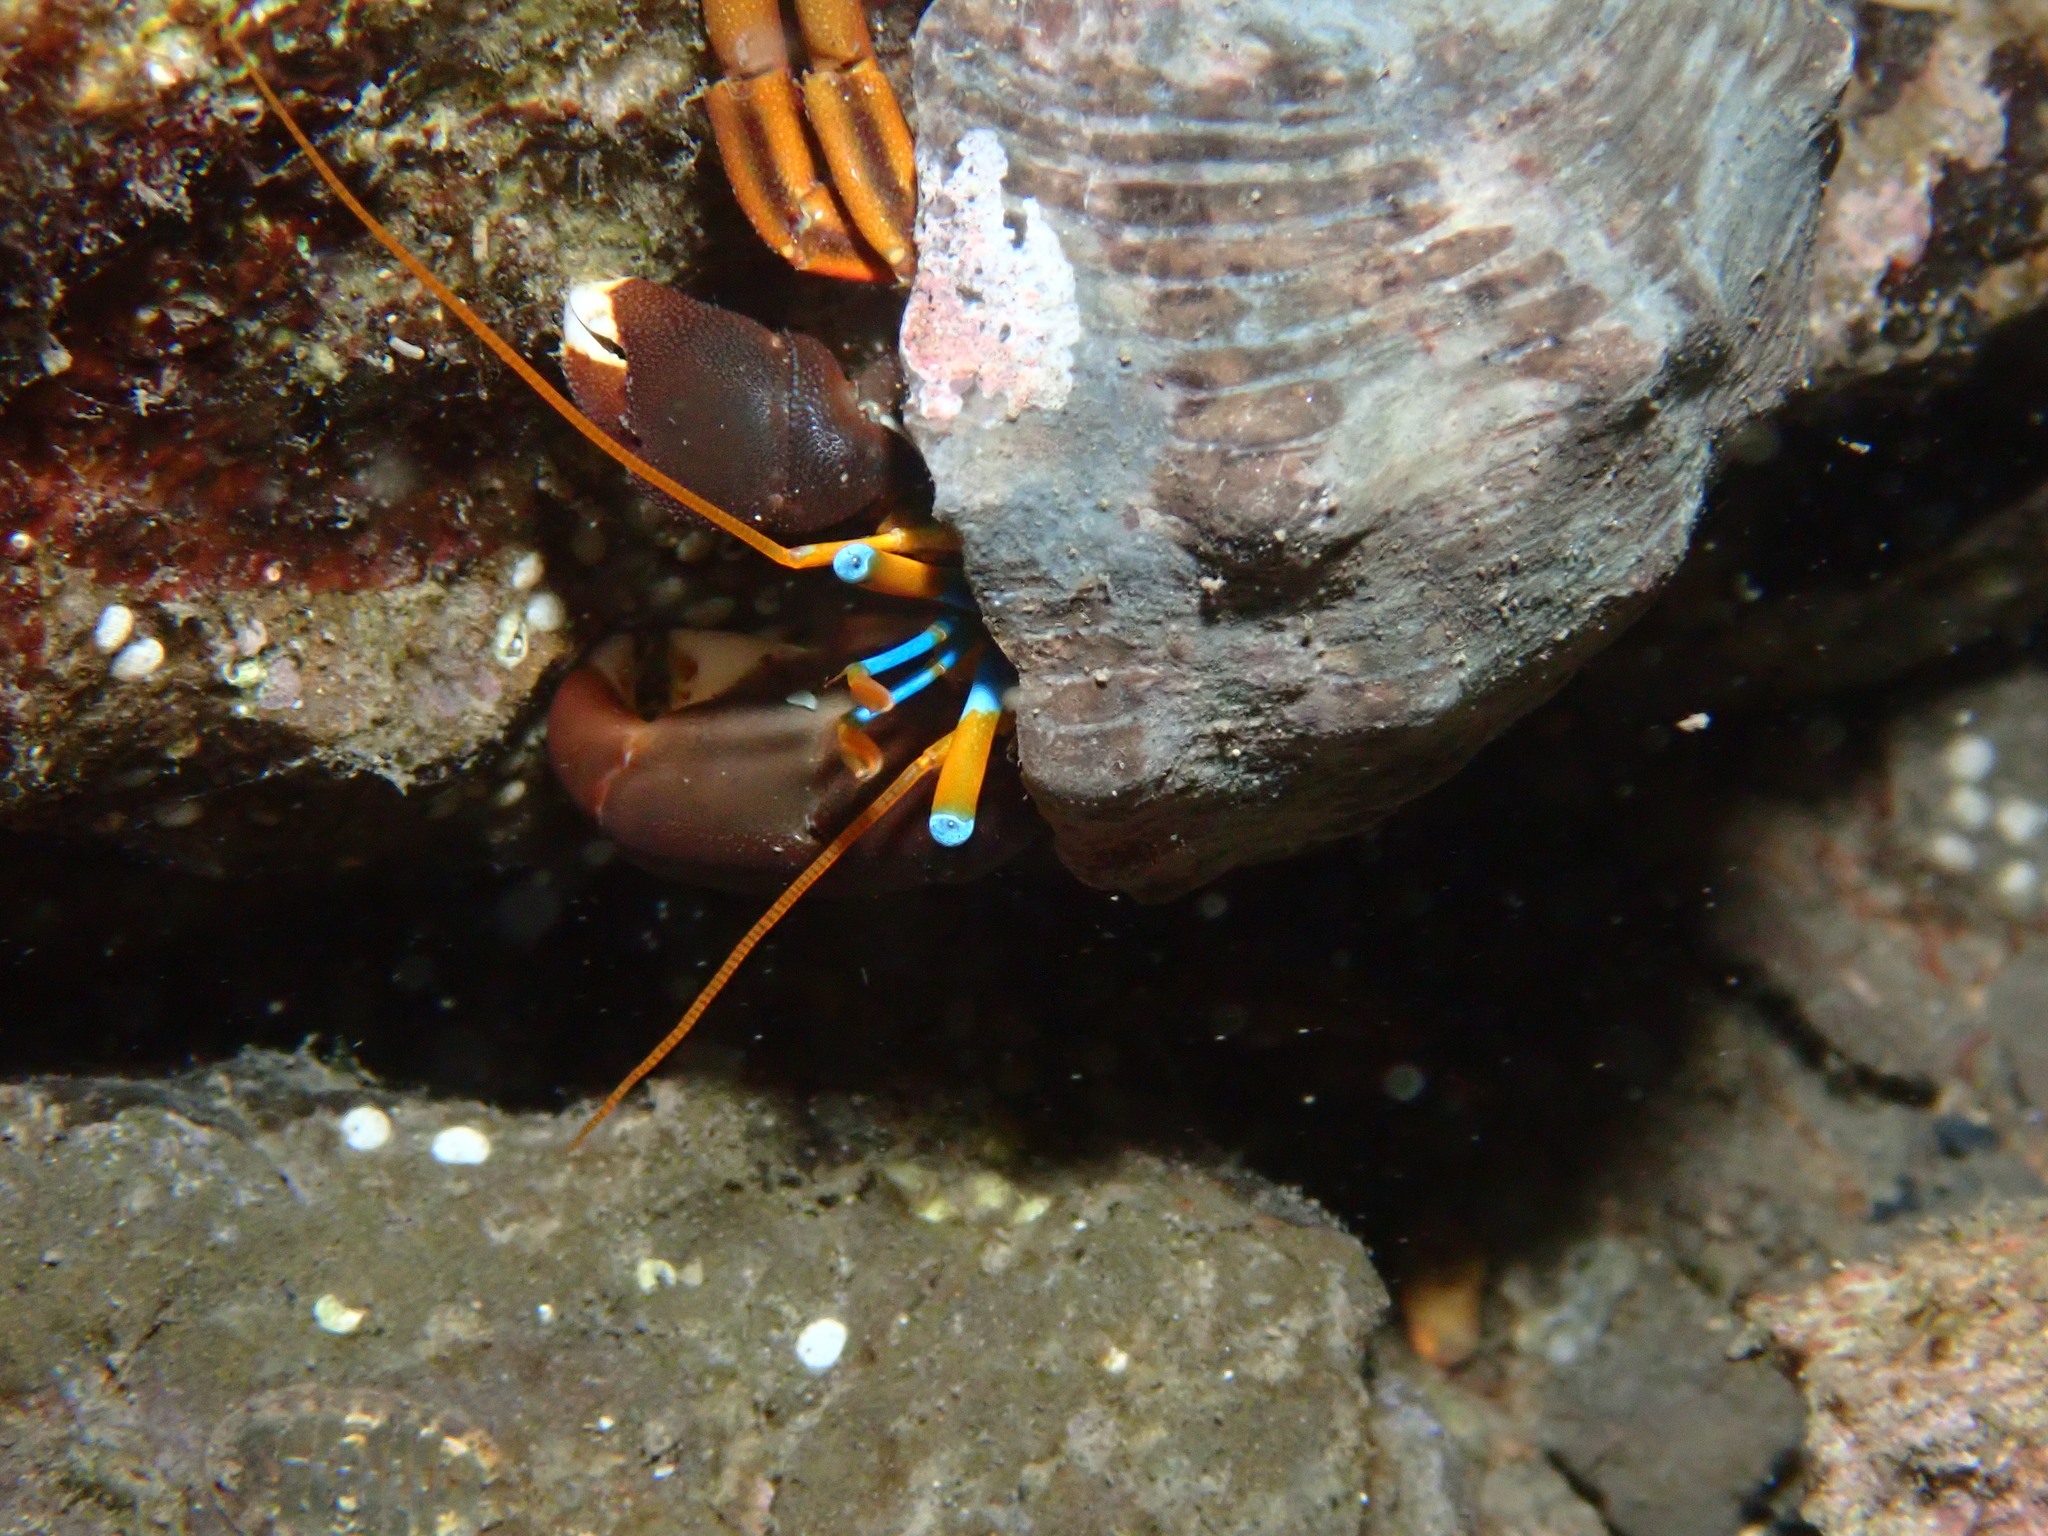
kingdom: Animalia
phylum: Arthropoda
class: Malacostraca
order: Decapoda
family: Diogenidae
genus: Calcinus
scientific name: Calcinus laevimanus
